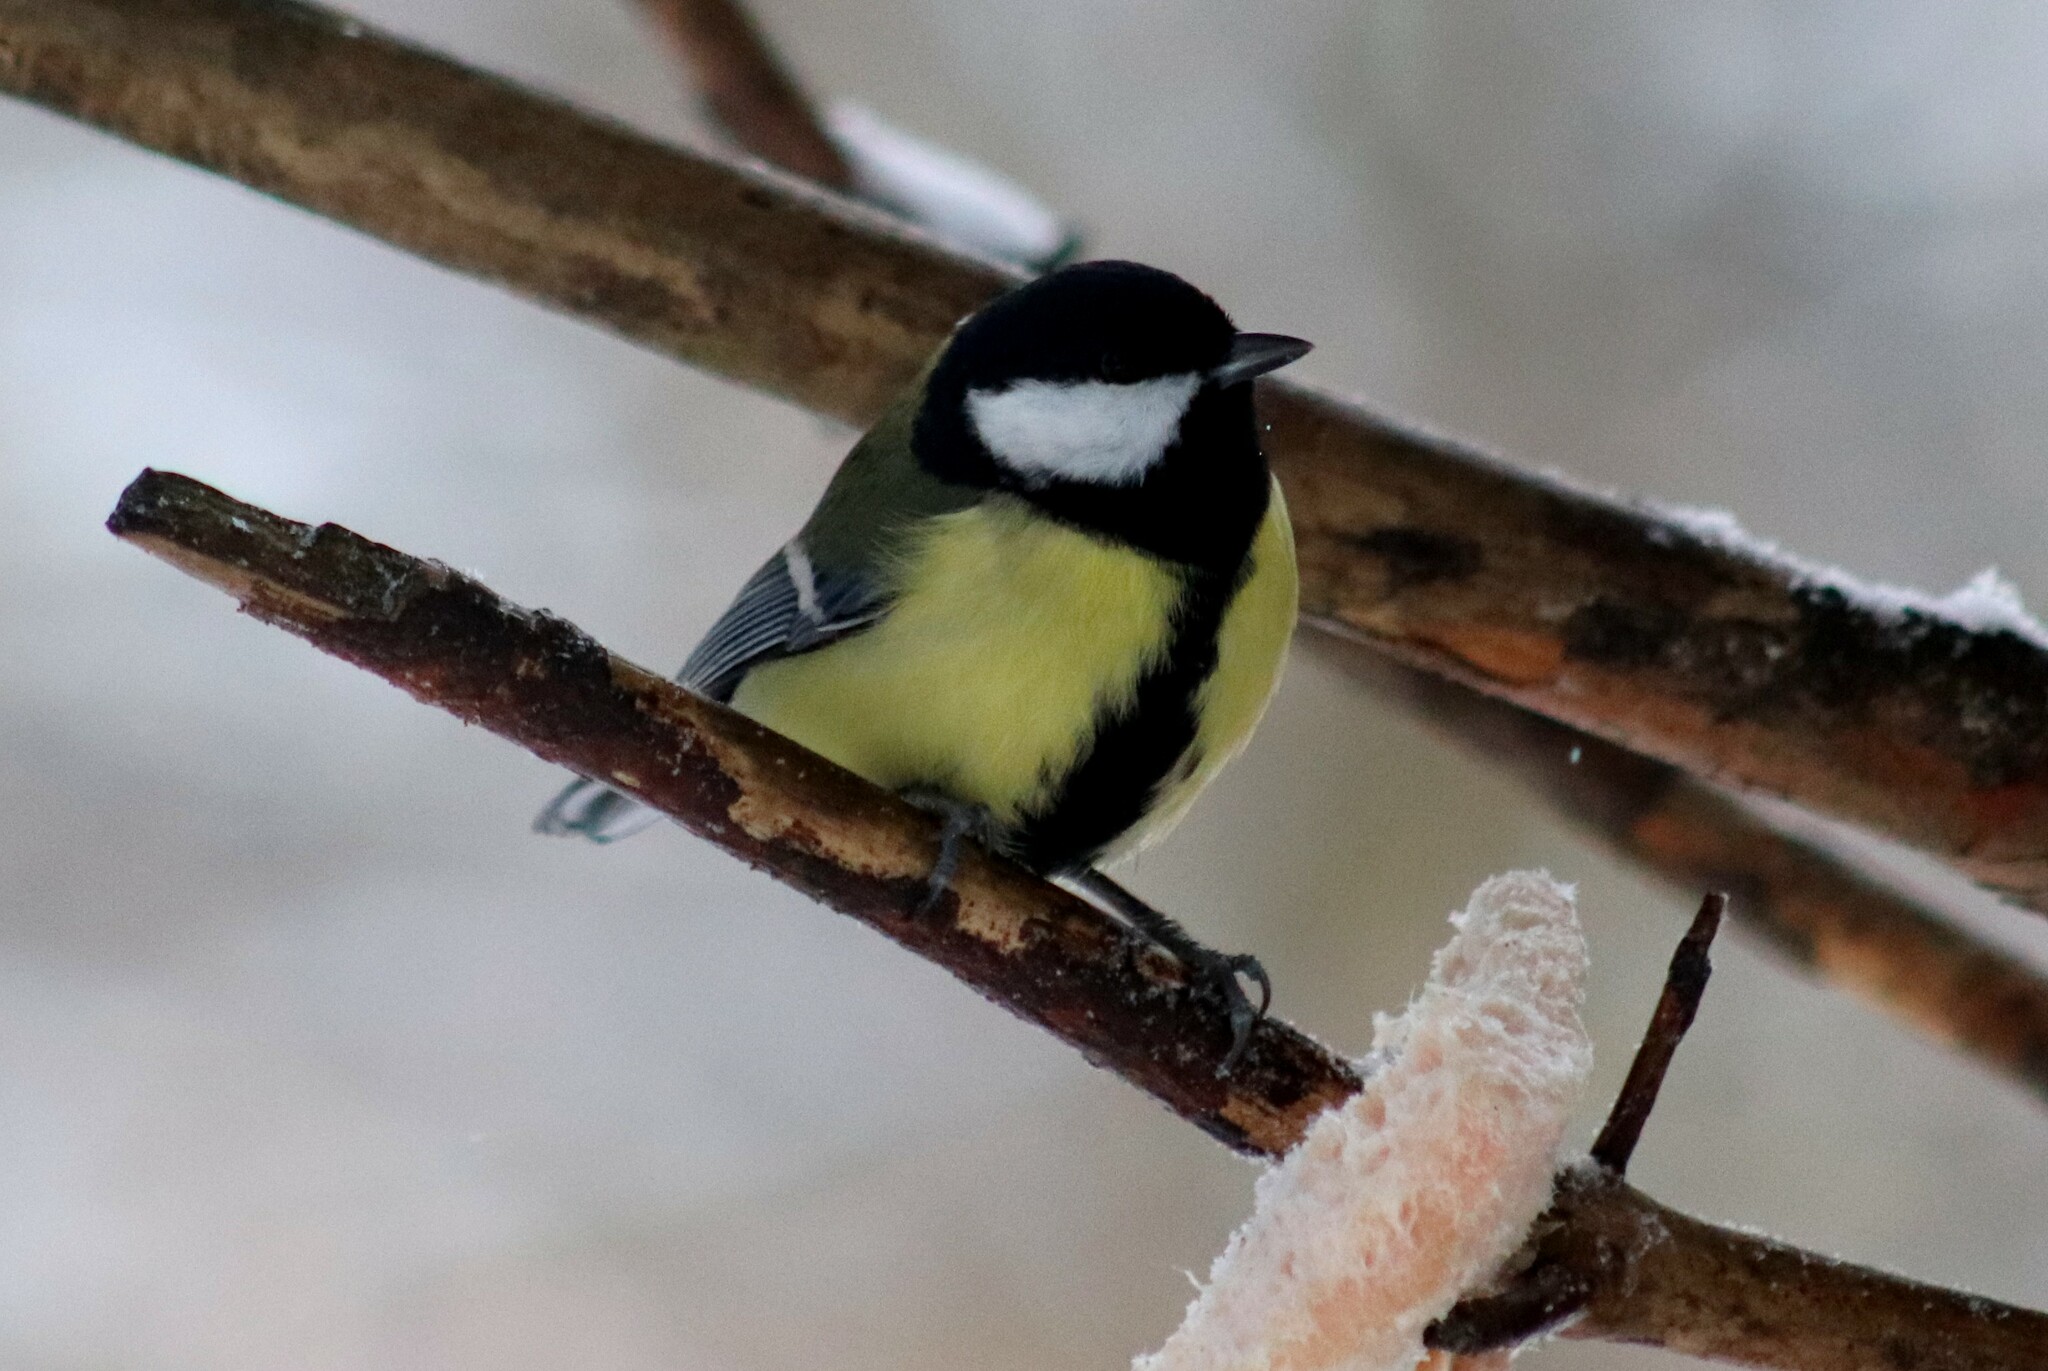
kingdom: Animalia
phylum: Chordata
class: Aves
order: Passeriformes
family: Paridae
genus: Parus
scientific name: Parus major
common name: Great tit
